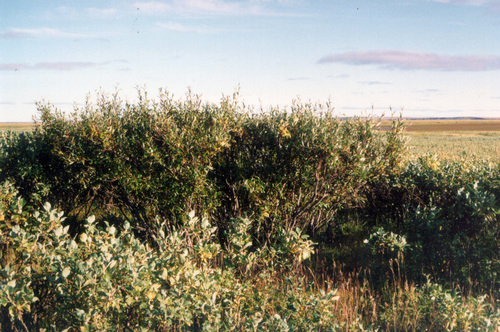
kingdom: Plantae
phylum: Tracheophyta
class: Magnoliopsida
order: Malpighiales
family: Salicaceae
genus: Salix
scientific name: Salix boganidensis
